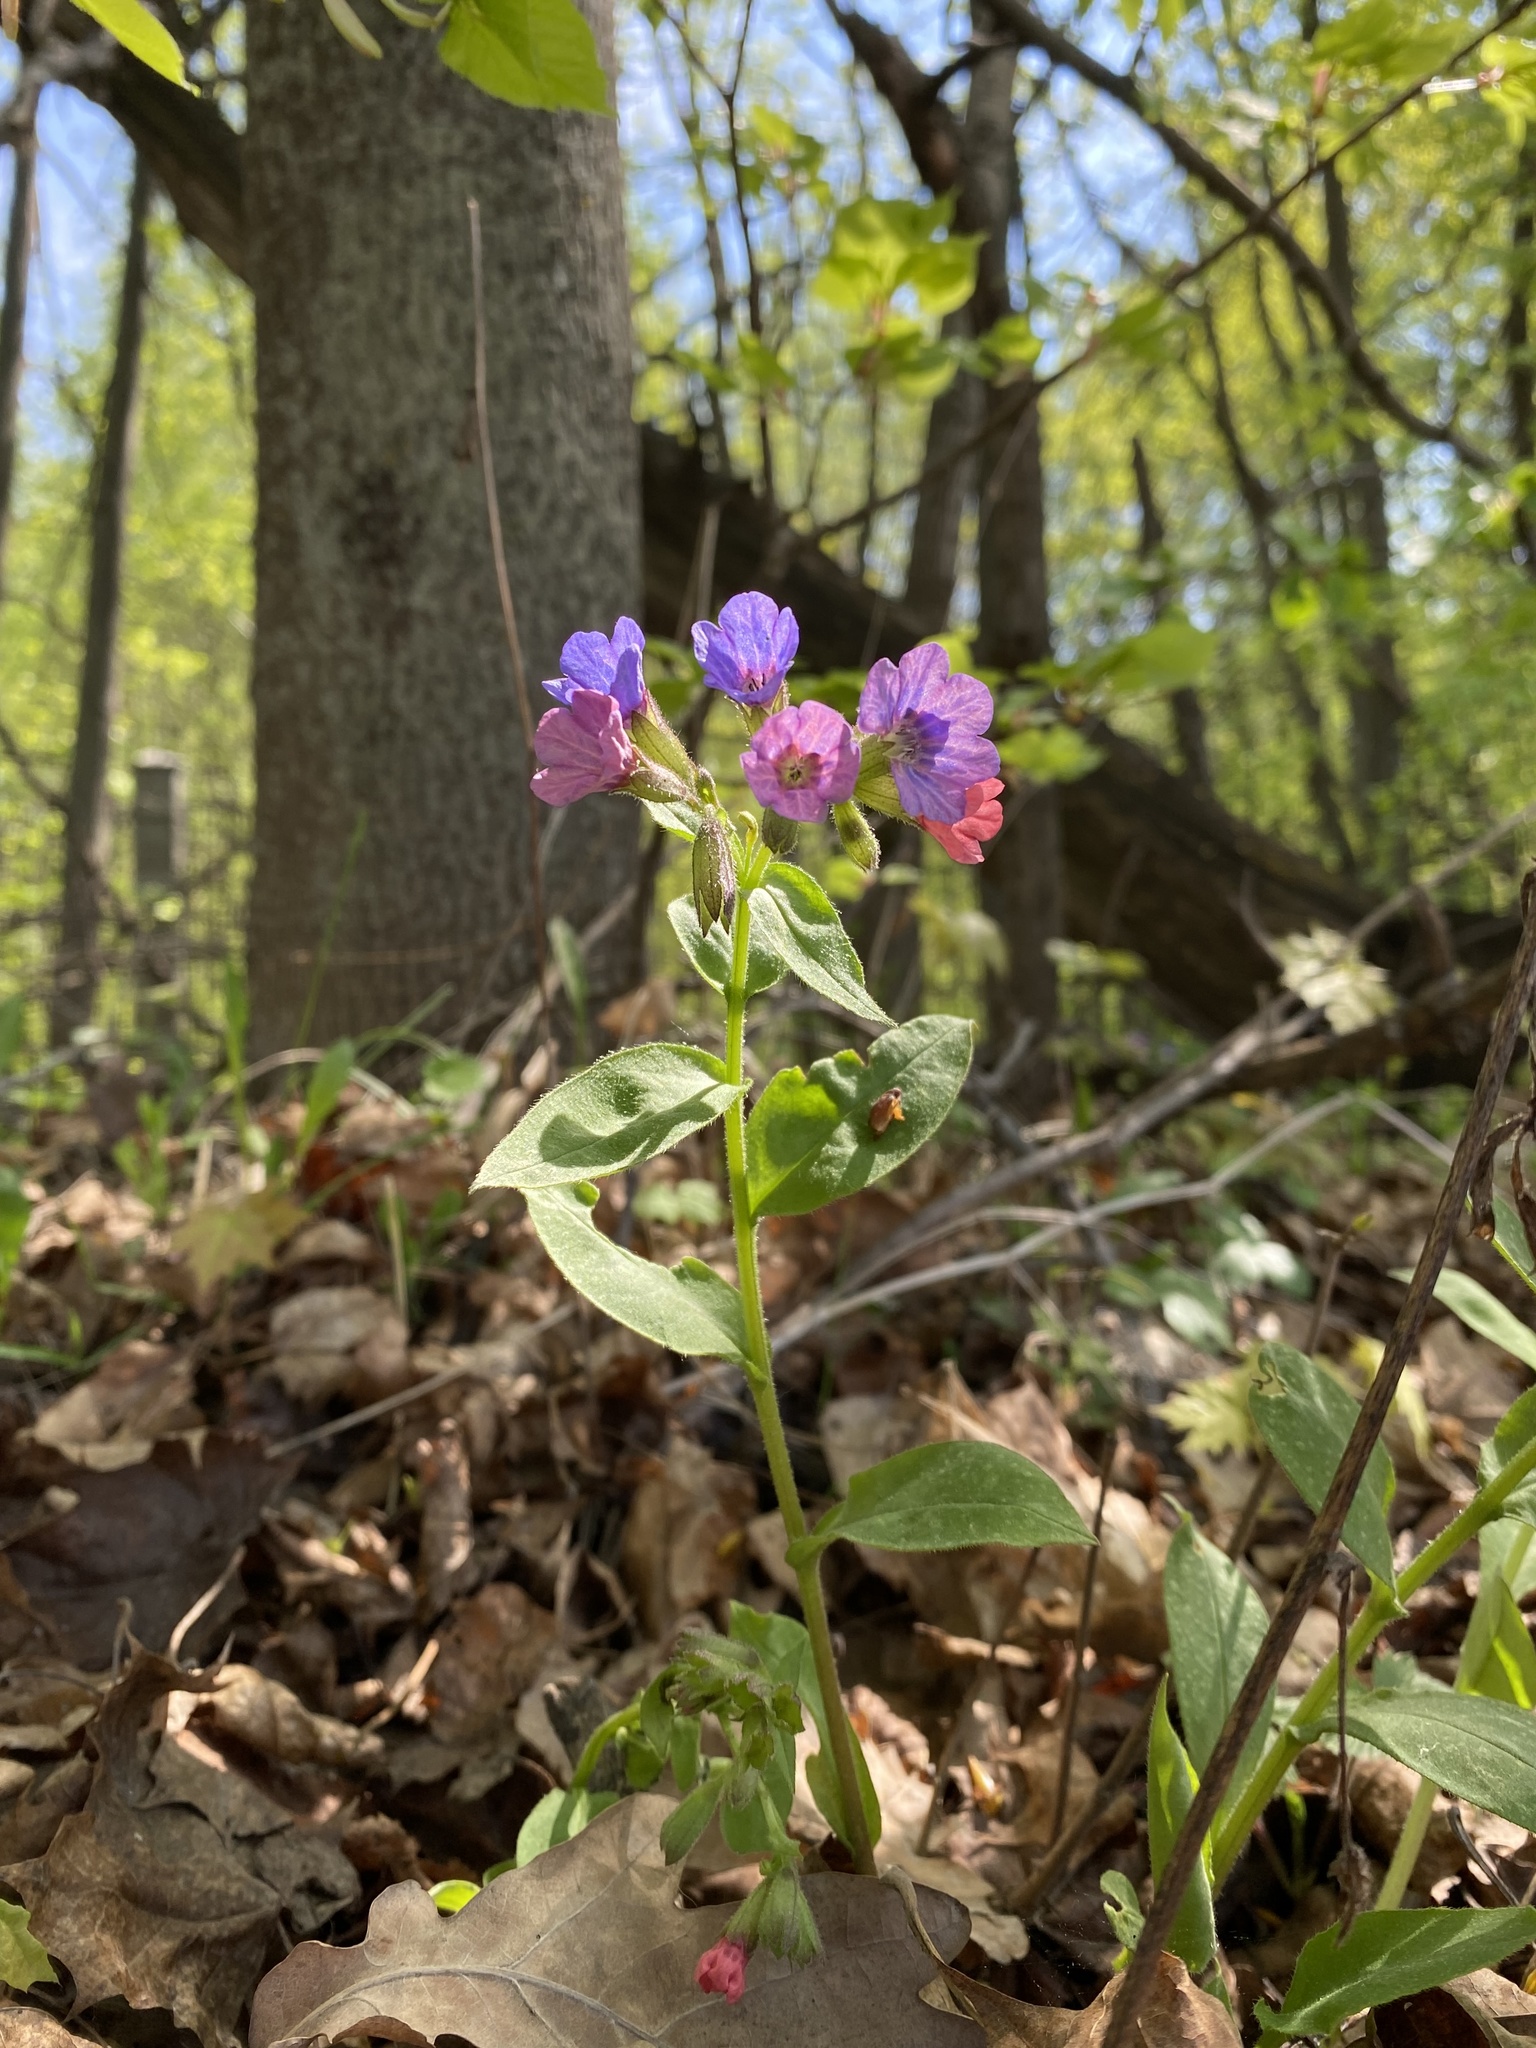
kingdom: Plantae
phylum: Tracheophyta
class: Magnoliopsida
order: Boraginales
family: Boraginaceae
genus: Pulmonaria
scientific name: Pulmonaria obscura
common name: Suffolk lungwort
